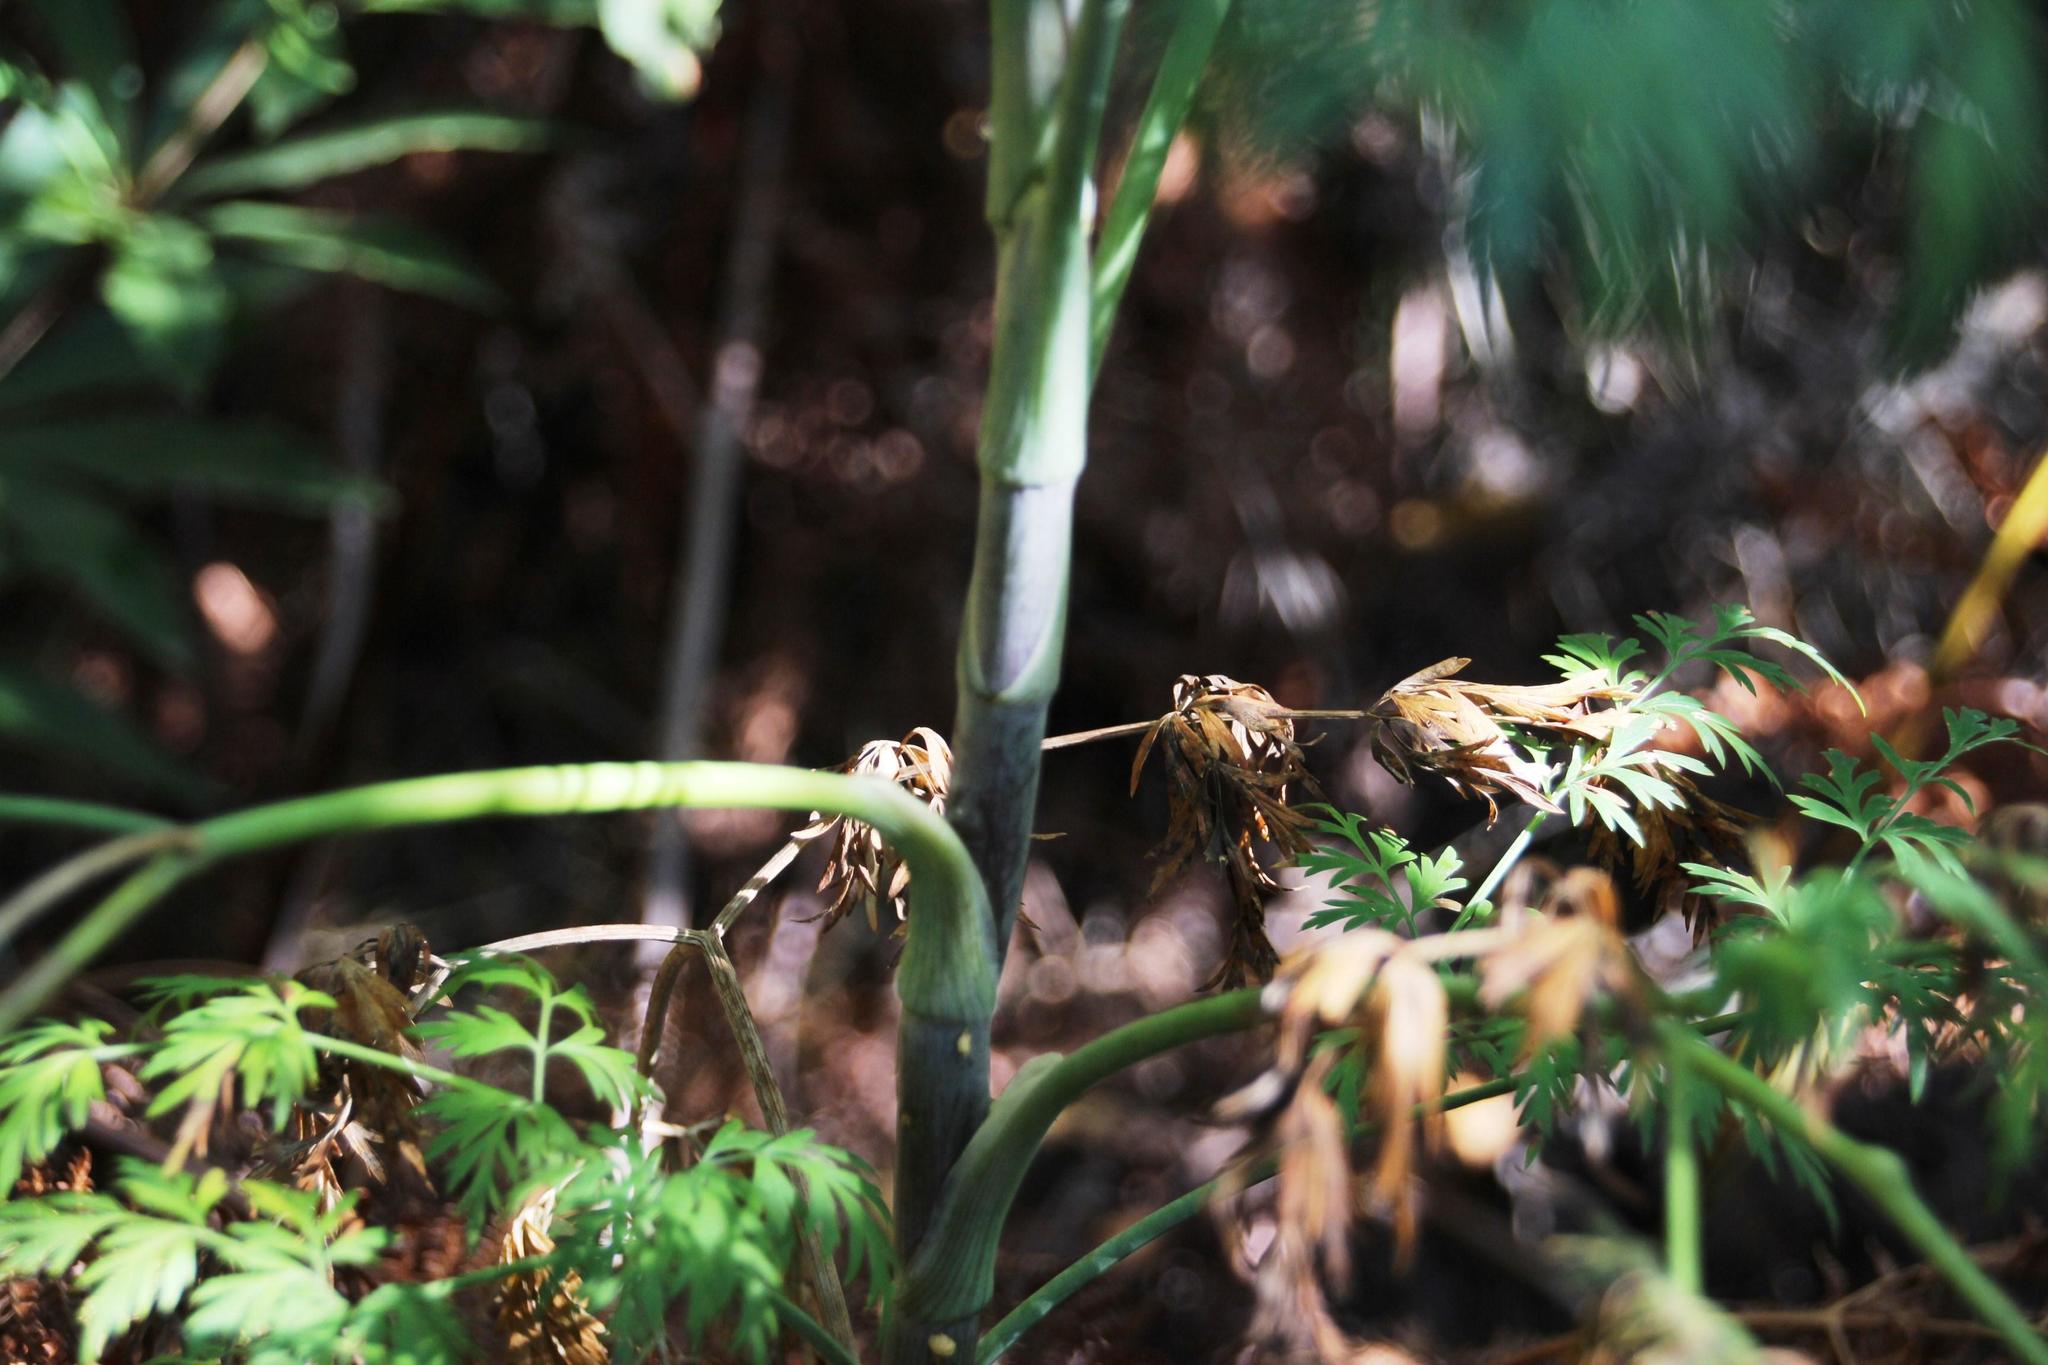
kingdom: Plantae
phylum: Tracheophyta
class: Magnoliopsida
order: Apiales
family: Apiaceae
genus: Notobubon
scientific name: Notobubon gummiferum
